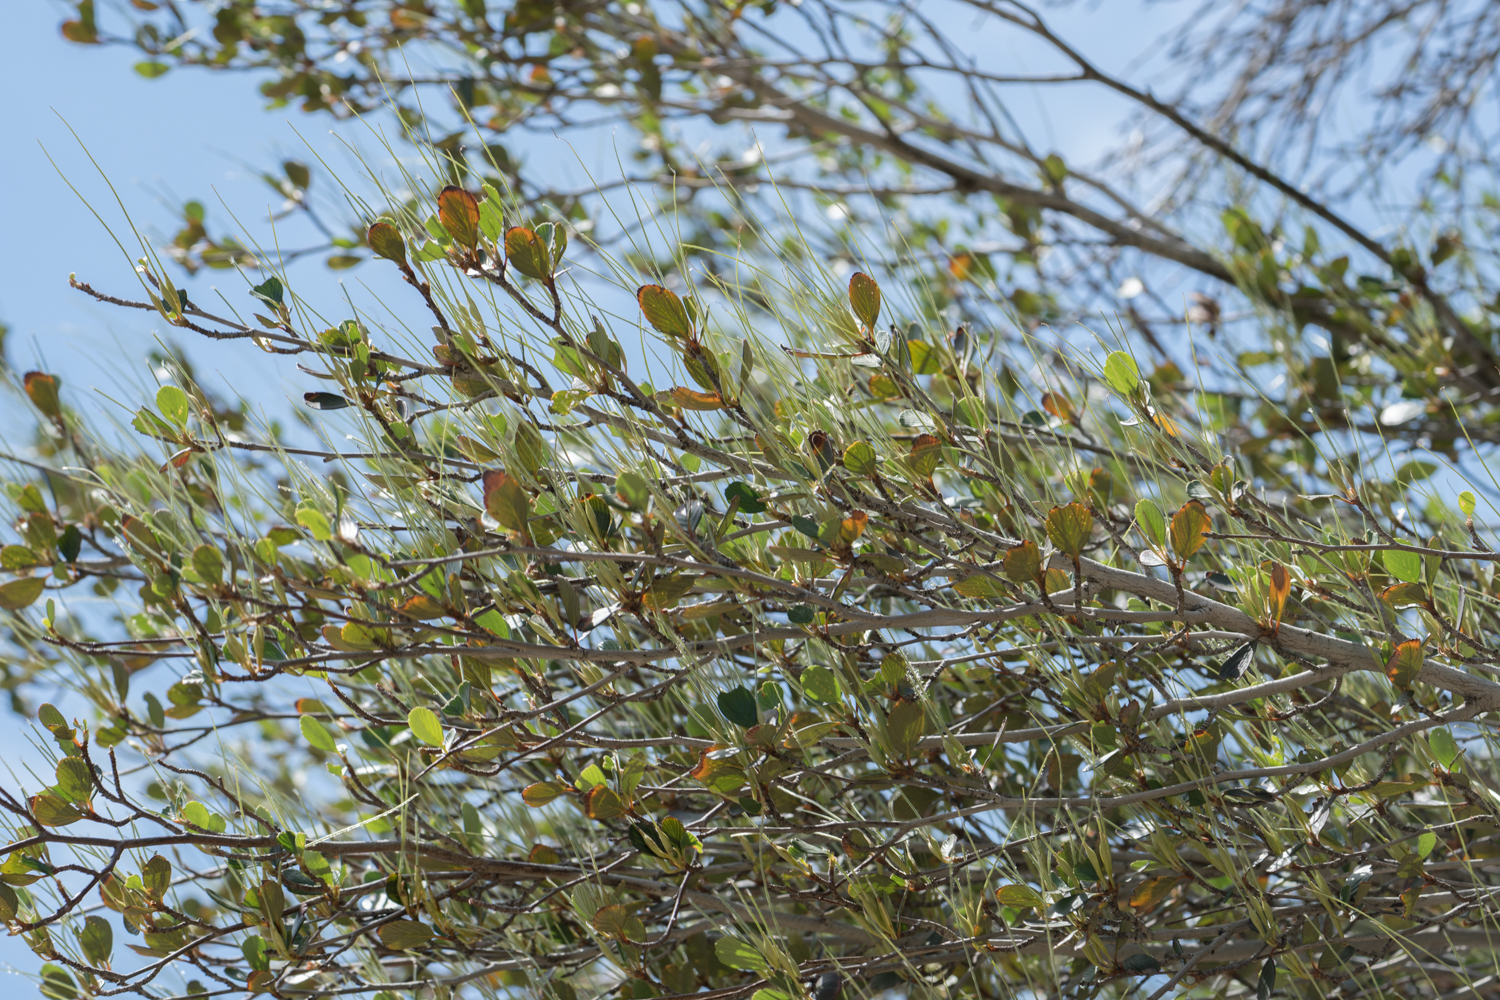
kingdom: Plantae
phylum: Tracheophyta
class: Magnoliopsida
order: Rosales
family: Rosaceae
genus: Cercocarpus
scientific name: Cercocarpus betuloides
